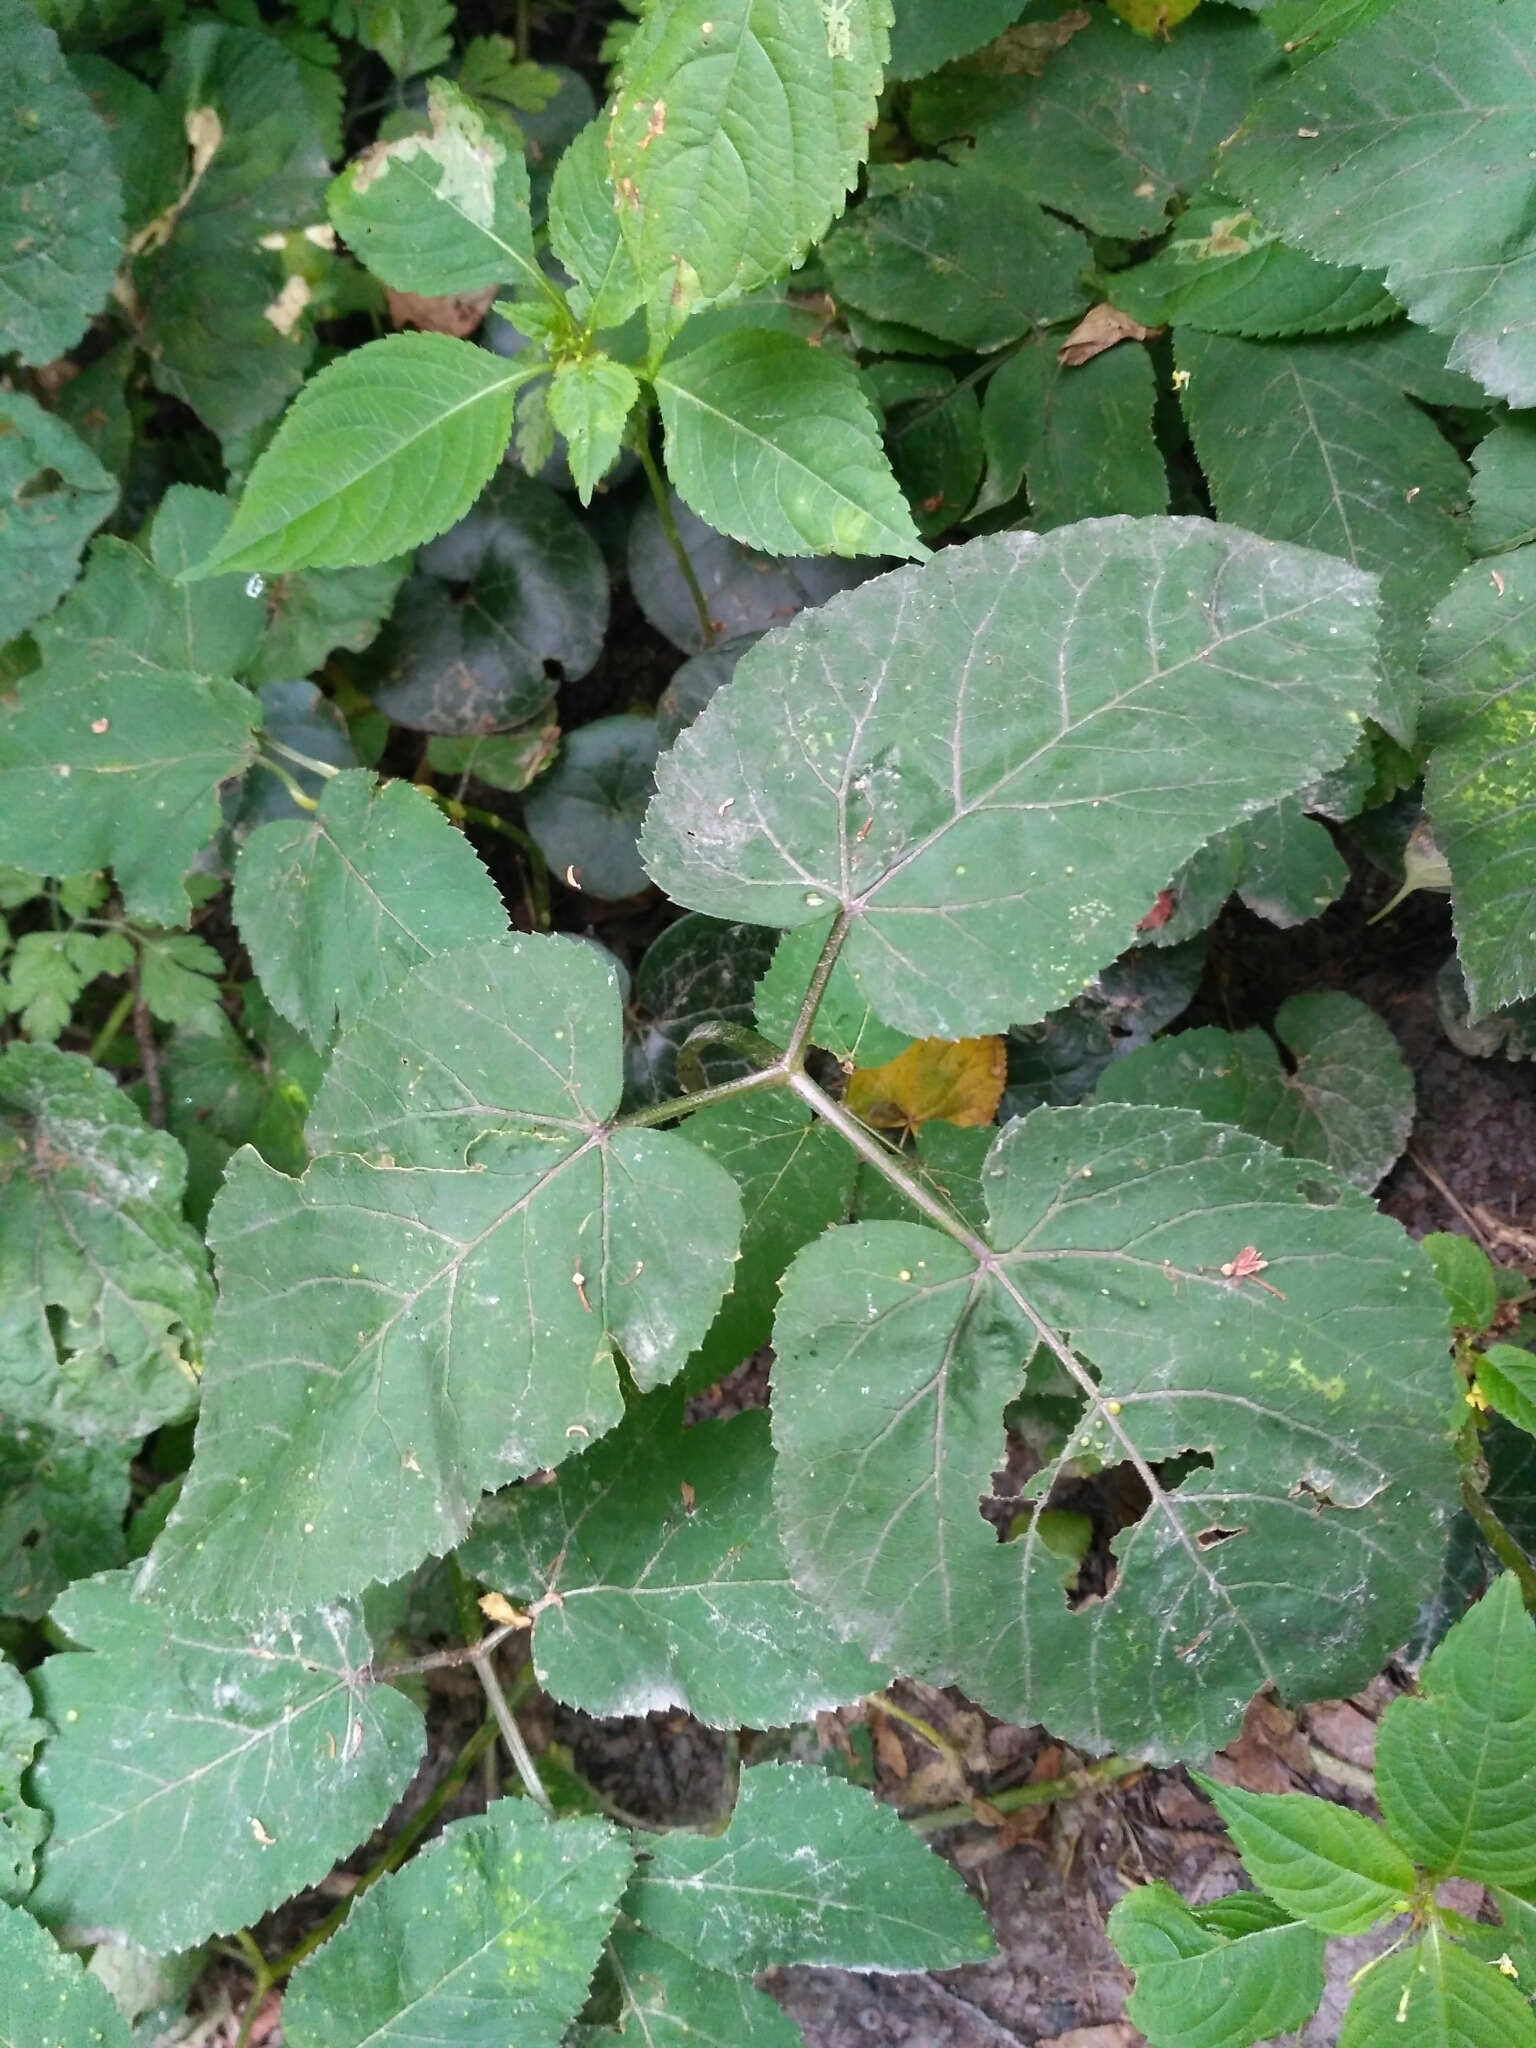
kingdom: Plantae
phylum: Tracheophyta
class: Magnoliopsida
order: Apiales
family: Apiaceae
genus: Aegopodium
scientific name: Aegopodium podagraria
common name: Ground-elder
